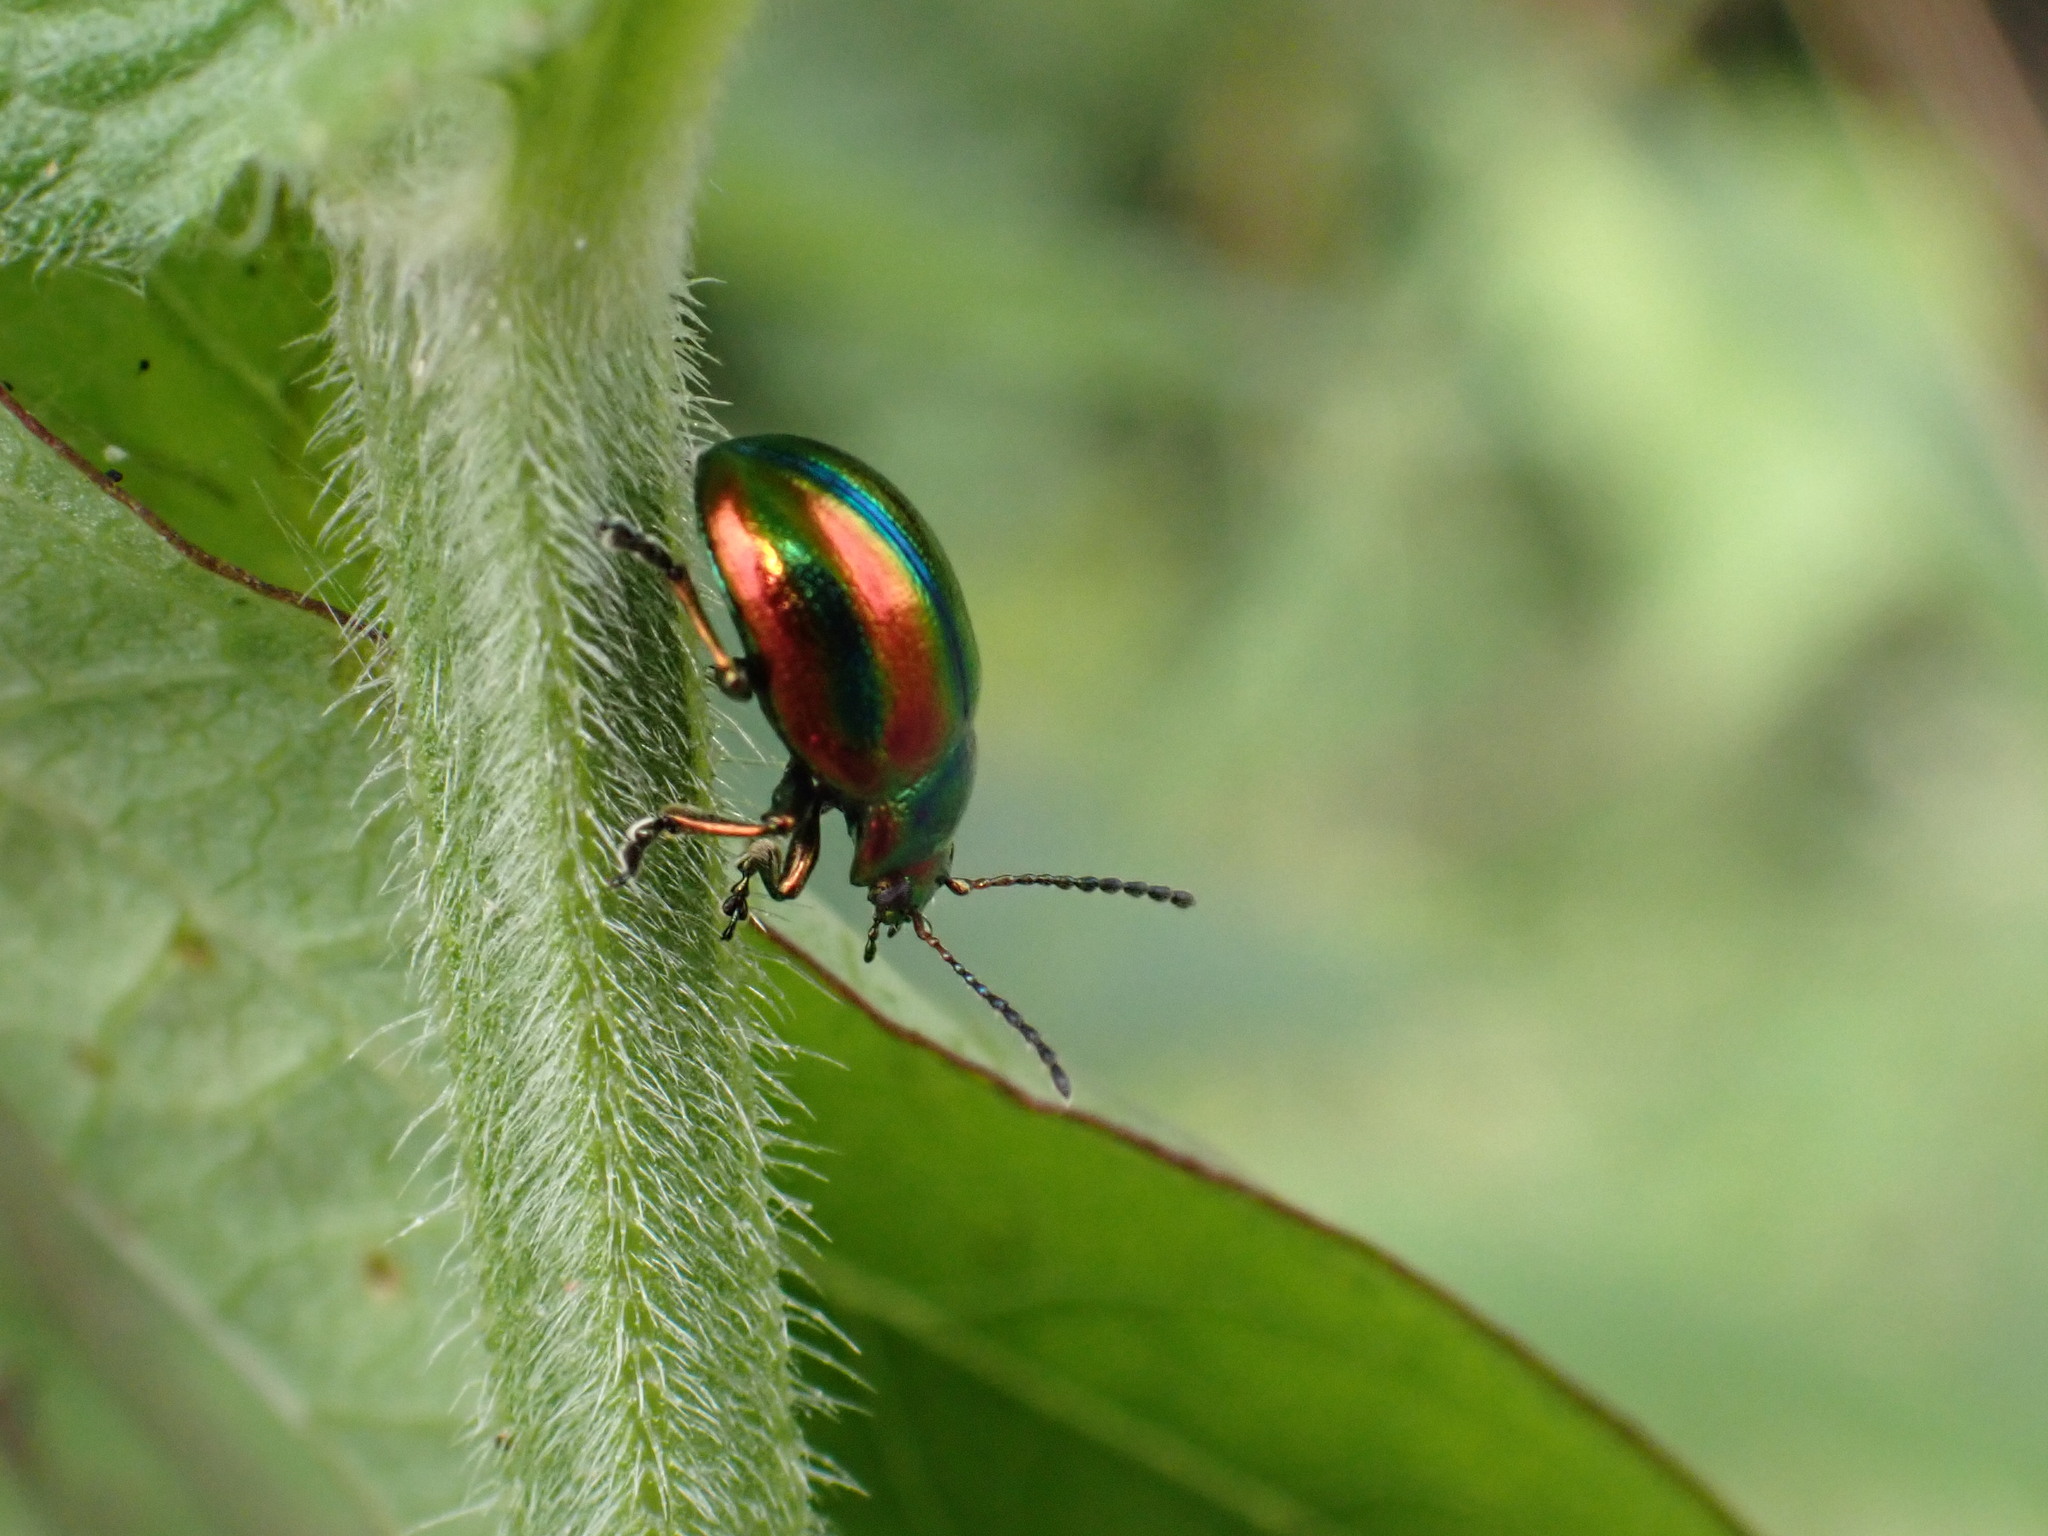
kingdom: Animalia
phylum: Arthropoda
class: Insecta
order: Coleoptera
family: Chrysomelidae
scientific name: Chrysomelidae
